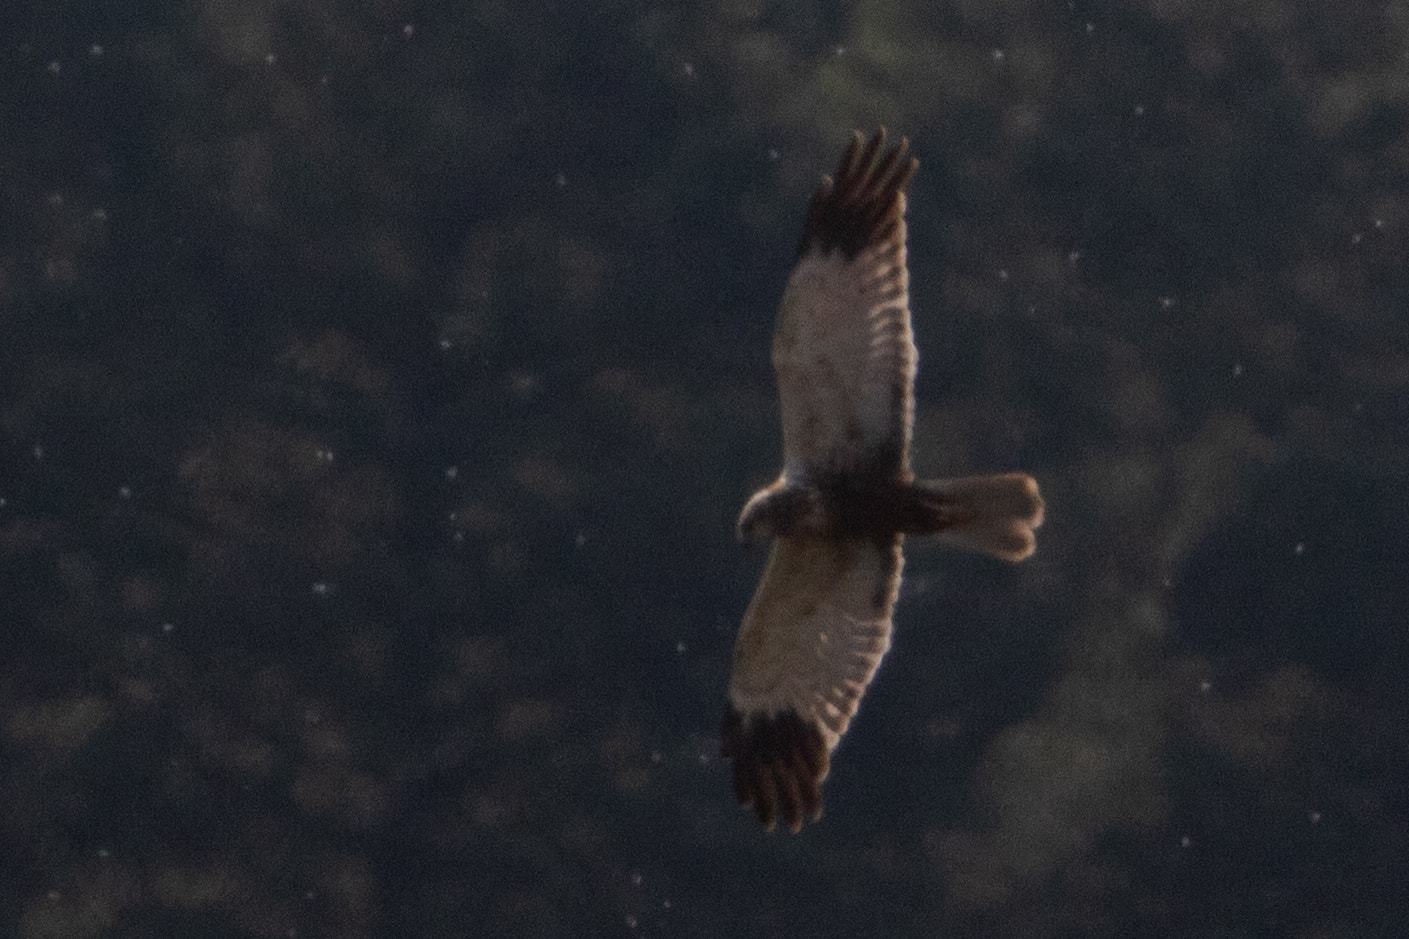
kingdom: Animalia
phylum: Chordata
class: Aves
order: Accipitriformes
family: Accipitridae
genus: Circus
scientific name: Circus aeruginosus
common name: Western marsh harrier
